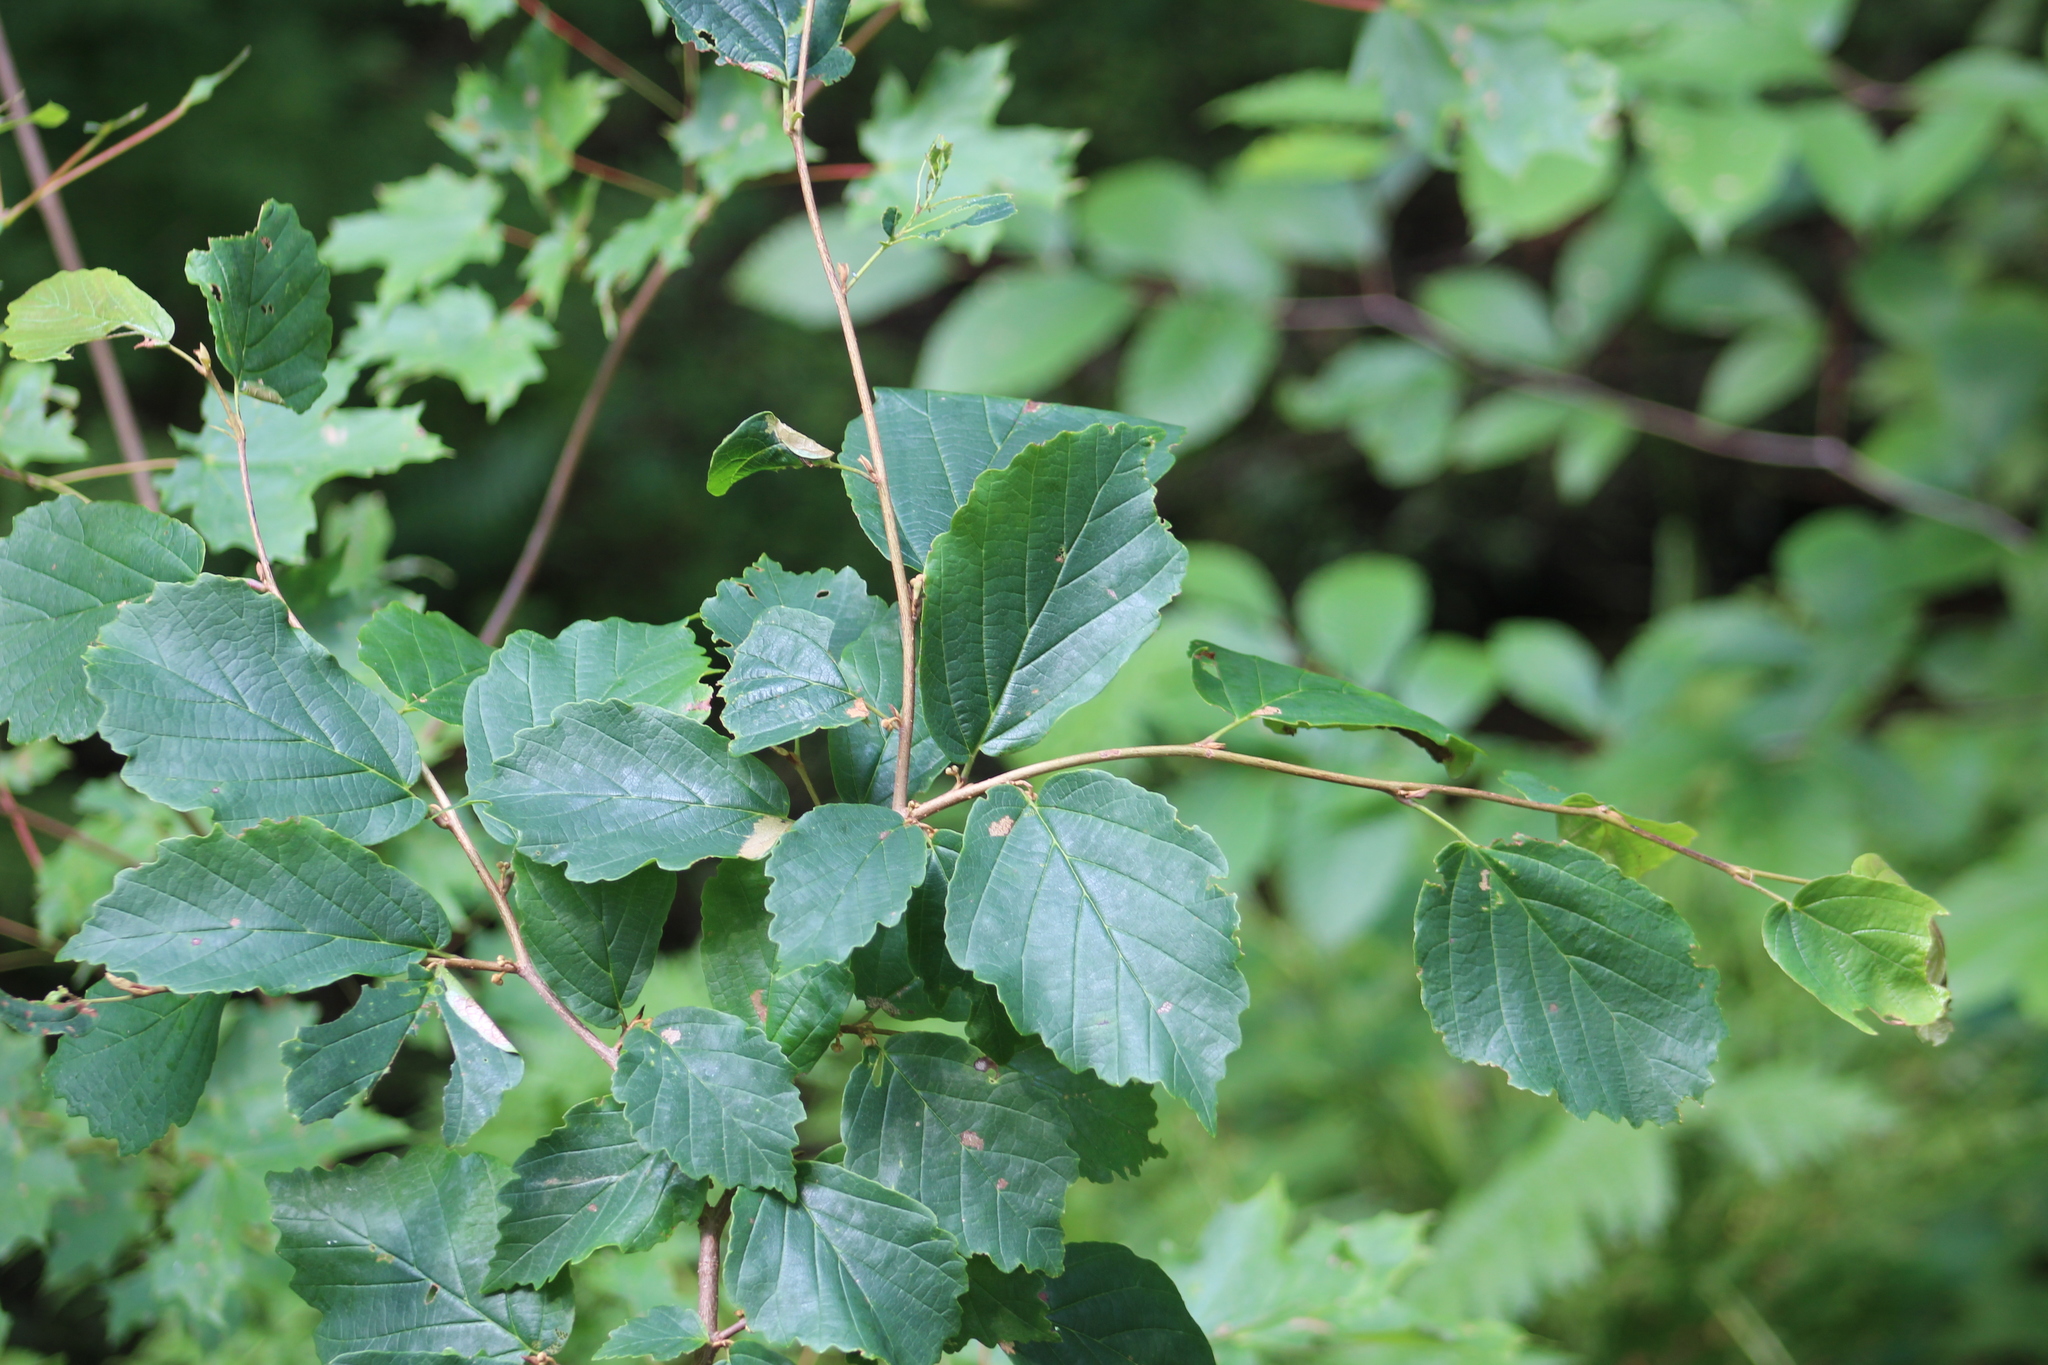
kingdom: Plantae
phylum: Tracheophyta
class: Magnoliopsida
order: Saxifragales
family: Hamamelidaceae
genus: Hamamelis
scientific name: Hamamelis virginiana
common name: Witch-hazel
